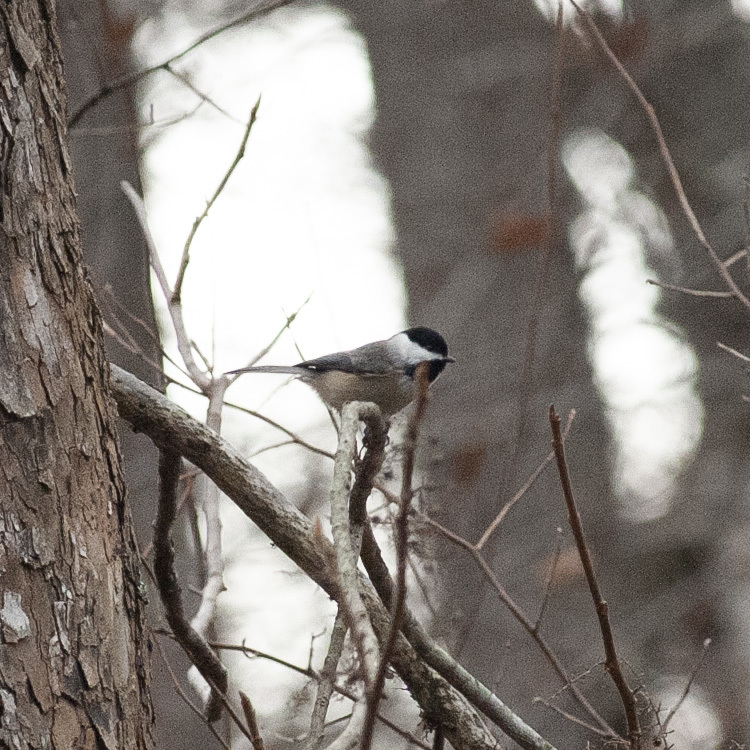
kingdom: Animalia
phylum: Chordata
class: Aves
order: Passeriformes
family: Paridae
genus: Poecile
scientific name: Poecile carolinensis
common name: Carolina chickadee
